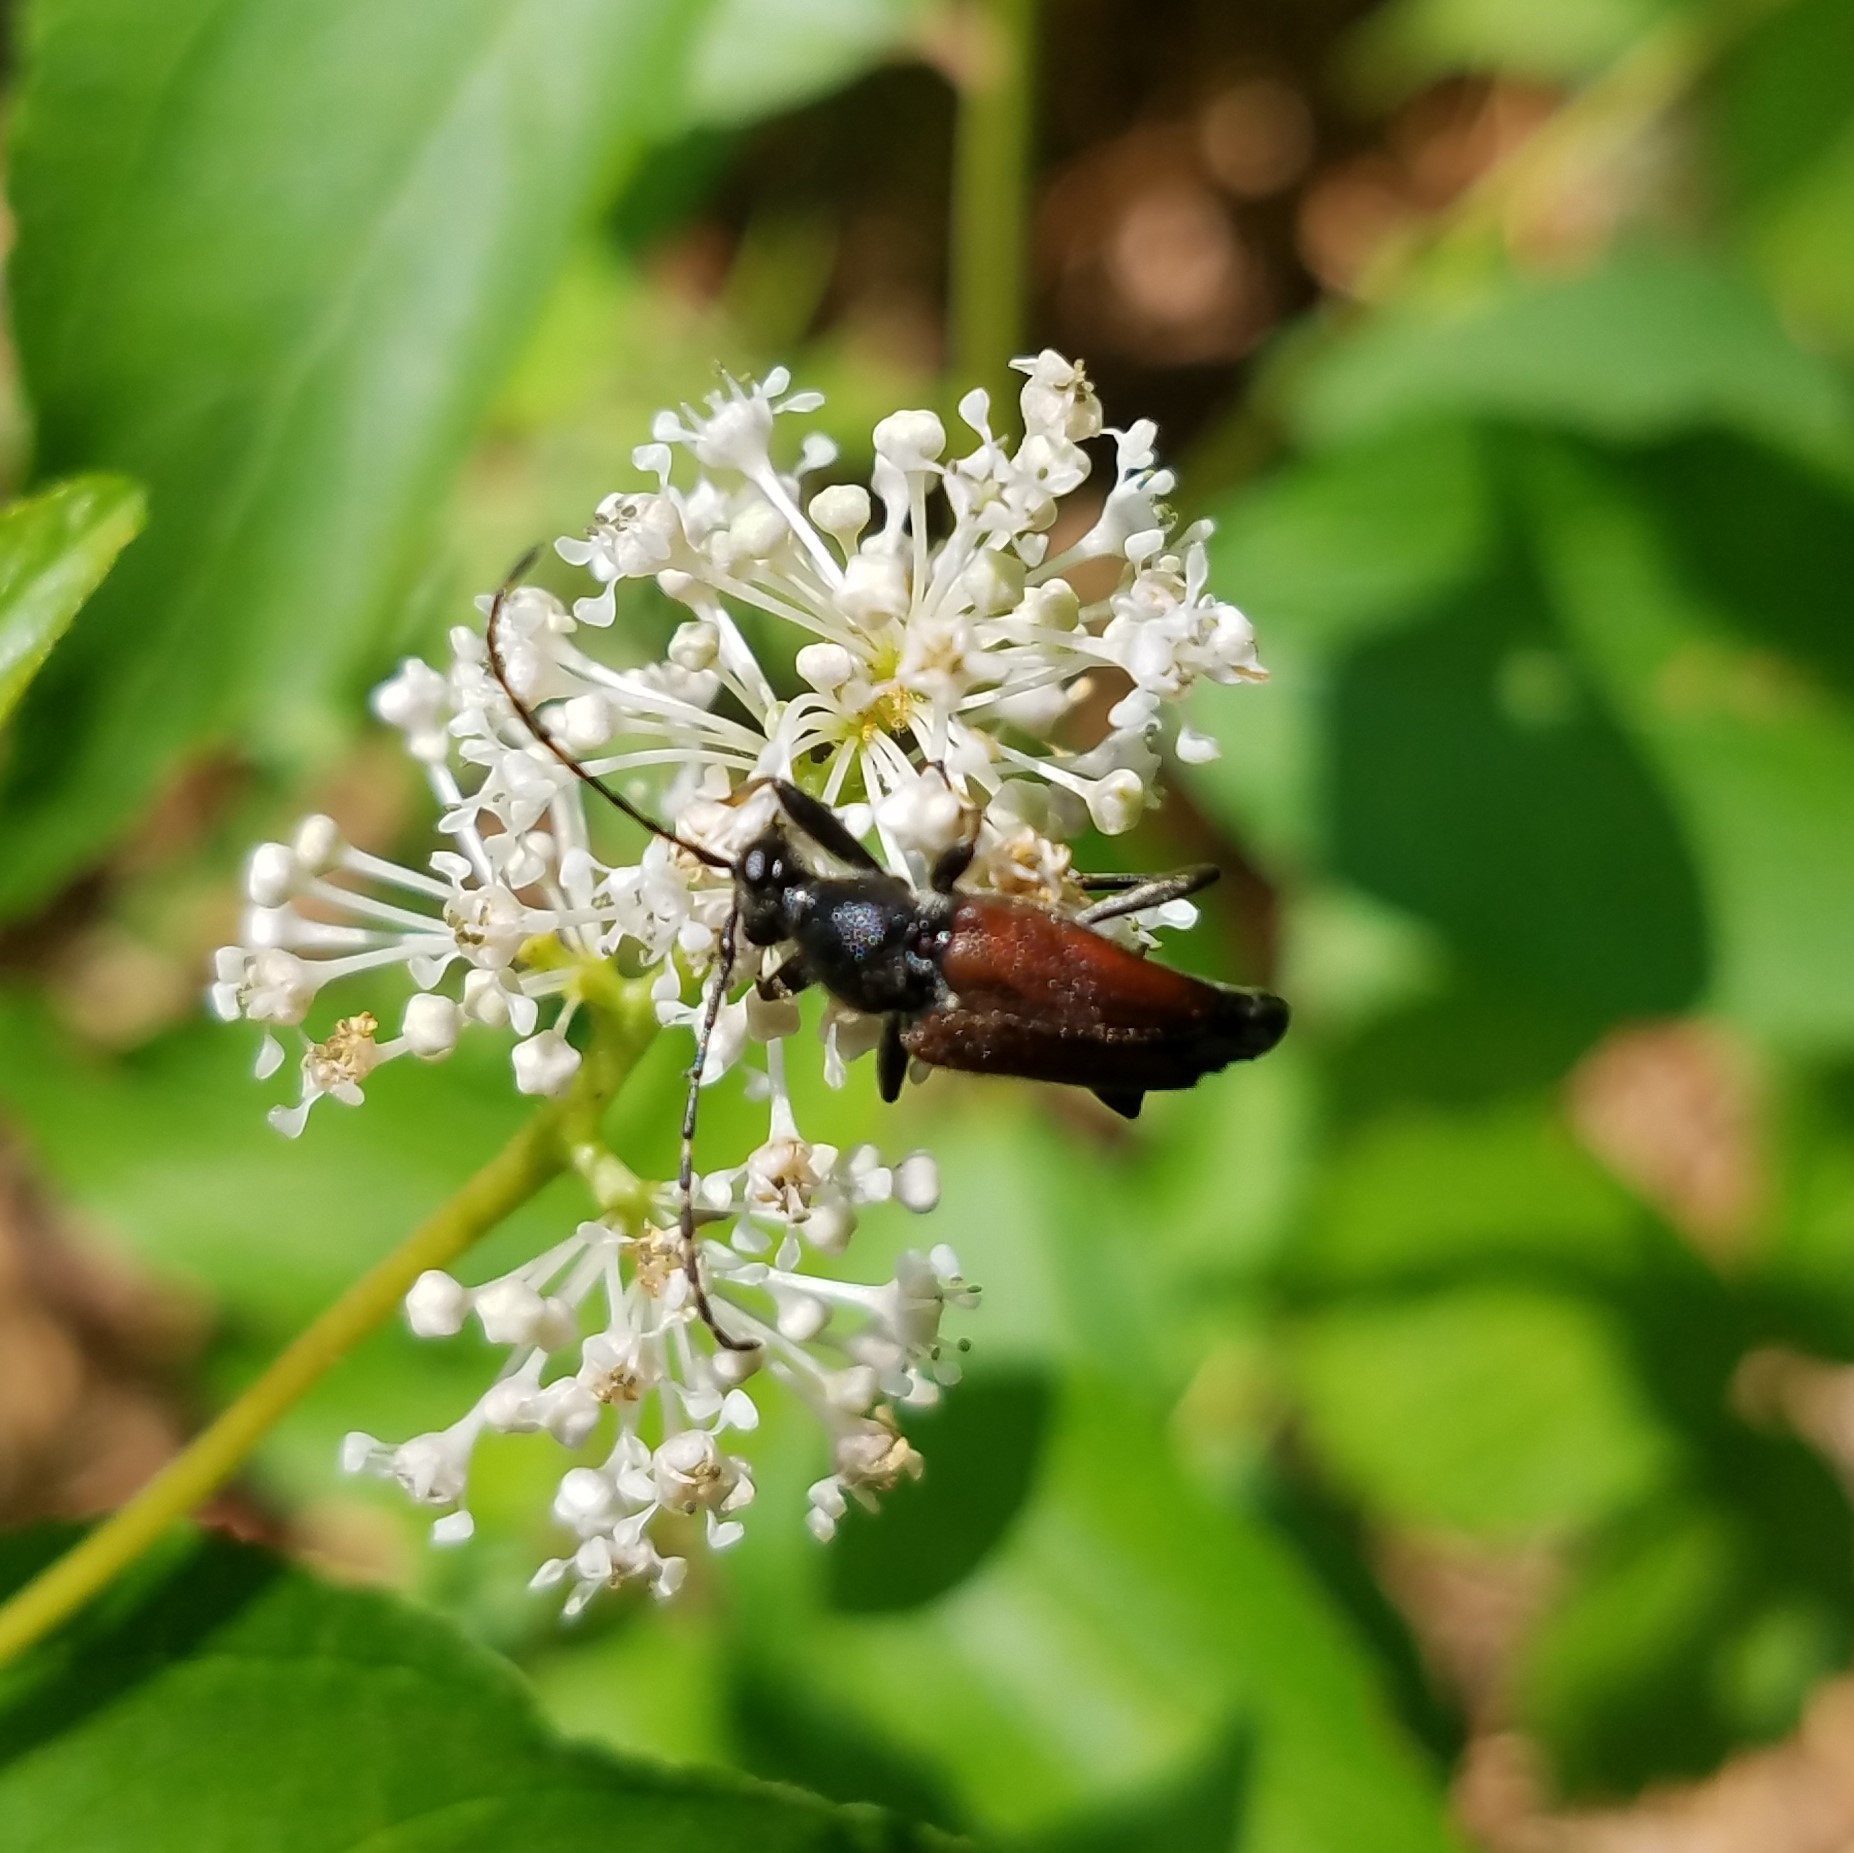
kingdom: Animalia
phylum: Arthropoda
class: Insecta
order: Coleoptera
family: Cerambycidae
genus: Brachyleptura
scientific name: Brachyleptura rubrica
